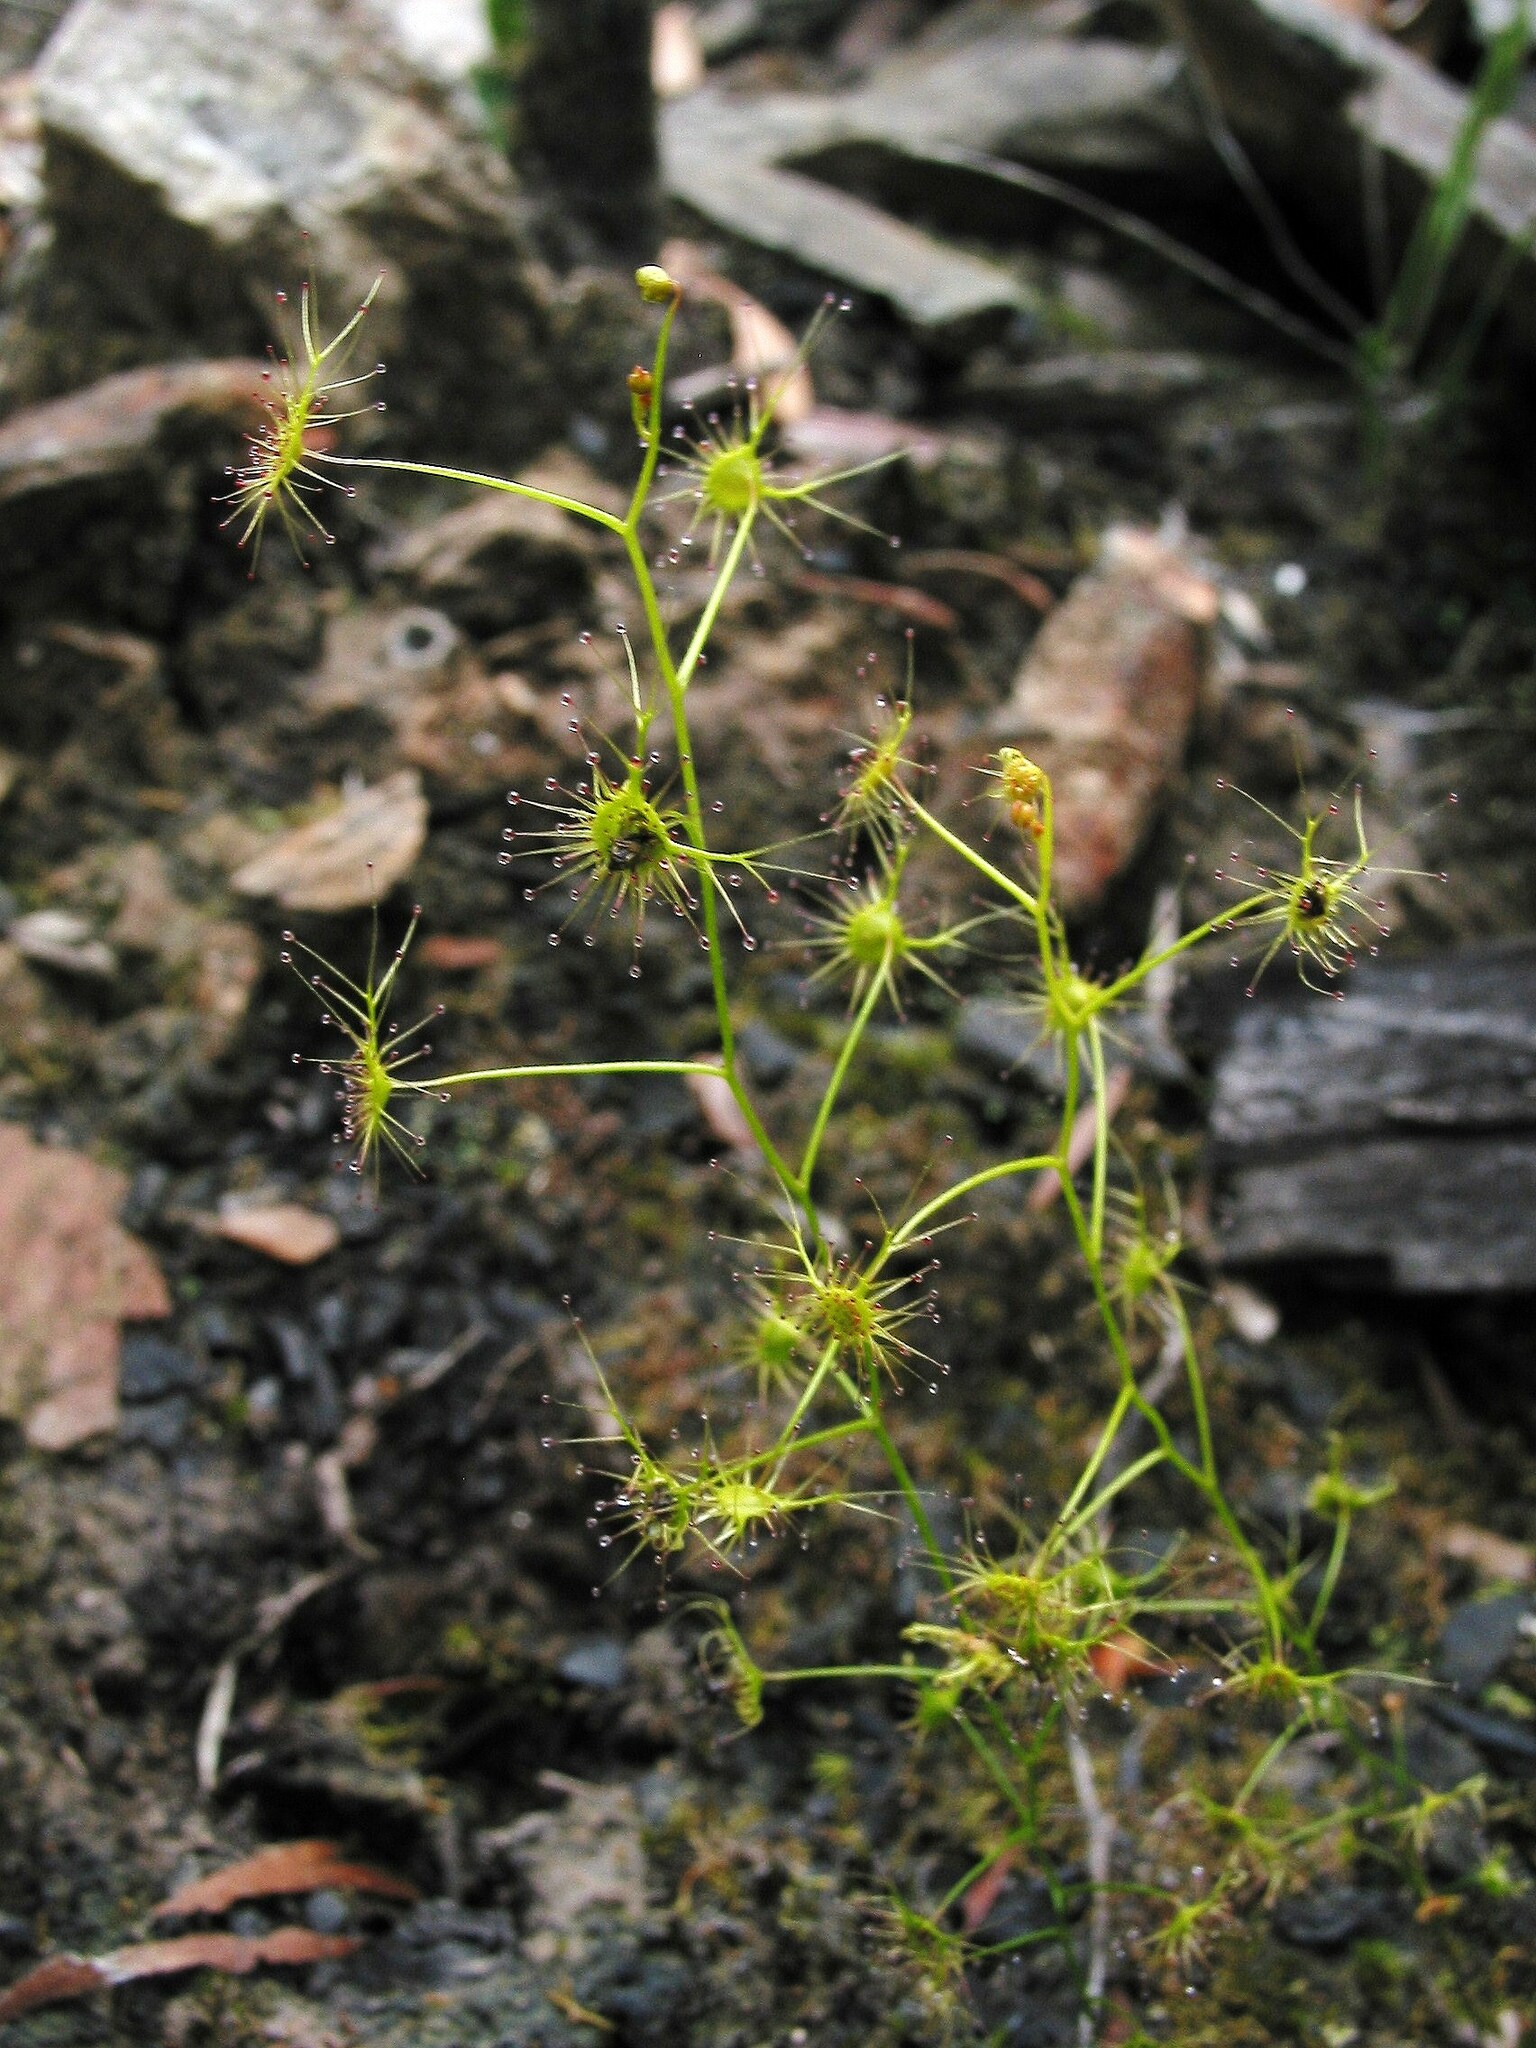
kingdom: Plantae
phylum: Tracheophyta
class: Magnoliopsida
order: Caryophyllales
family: Droseraceae
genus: Drosera
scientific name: Drosera modesta
